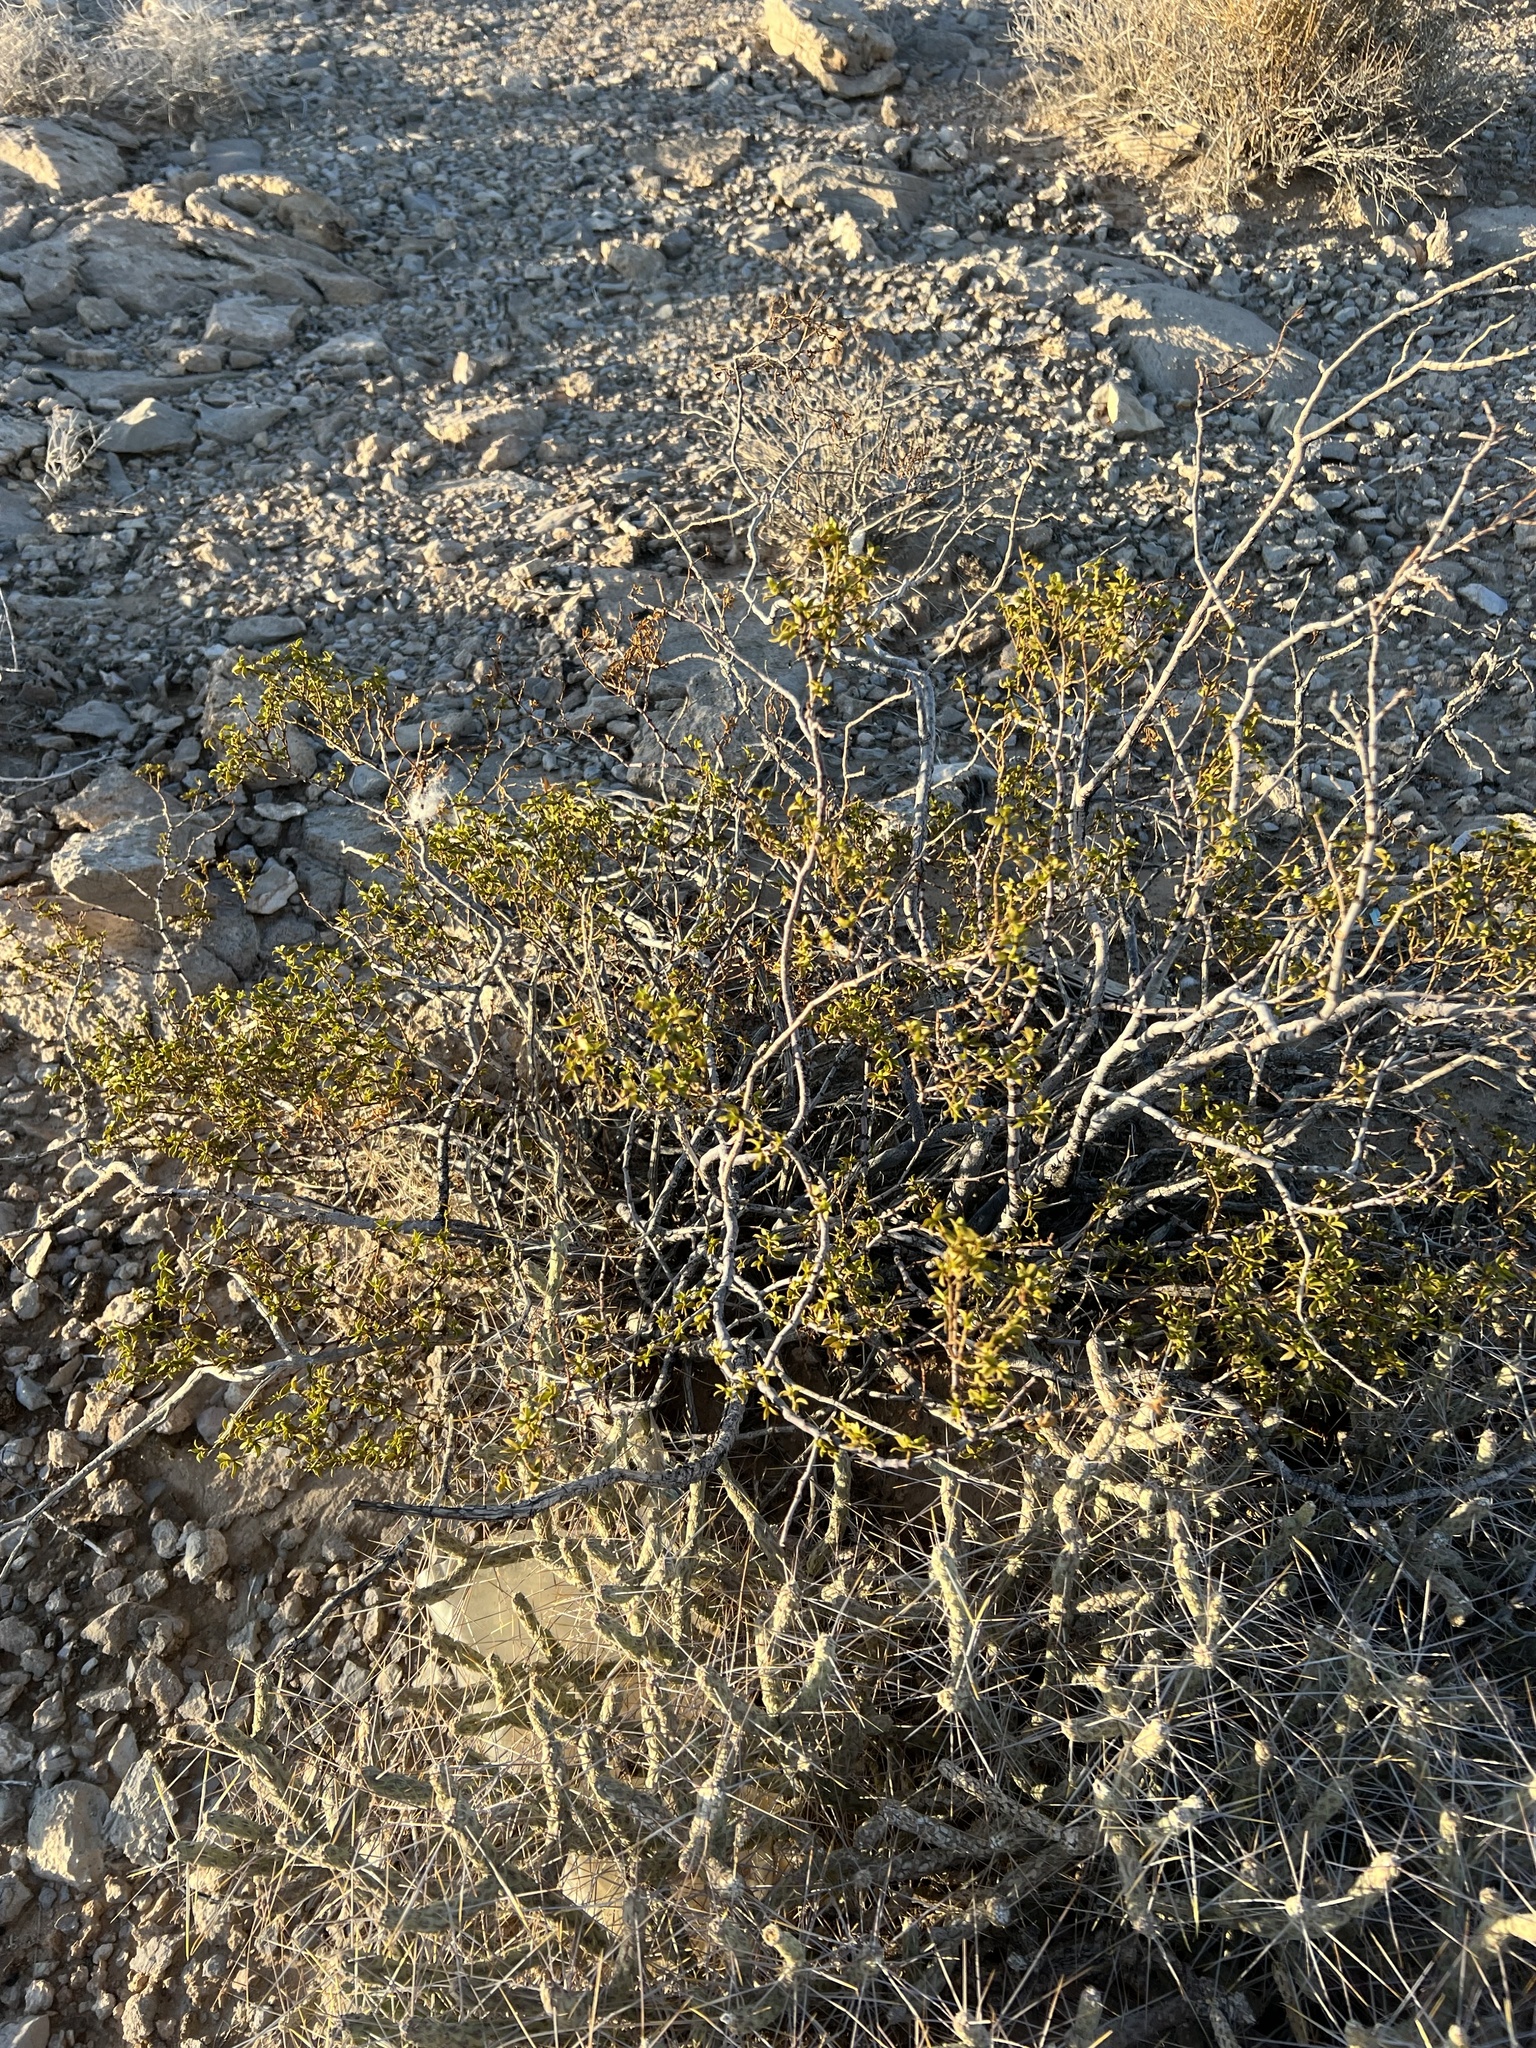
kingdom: Plantae
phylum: Tracheophyta
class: Magnoliopsida
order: Zygophyllales
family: Zygophyllaceae
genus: Larrea
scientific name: Larrea tridentata
